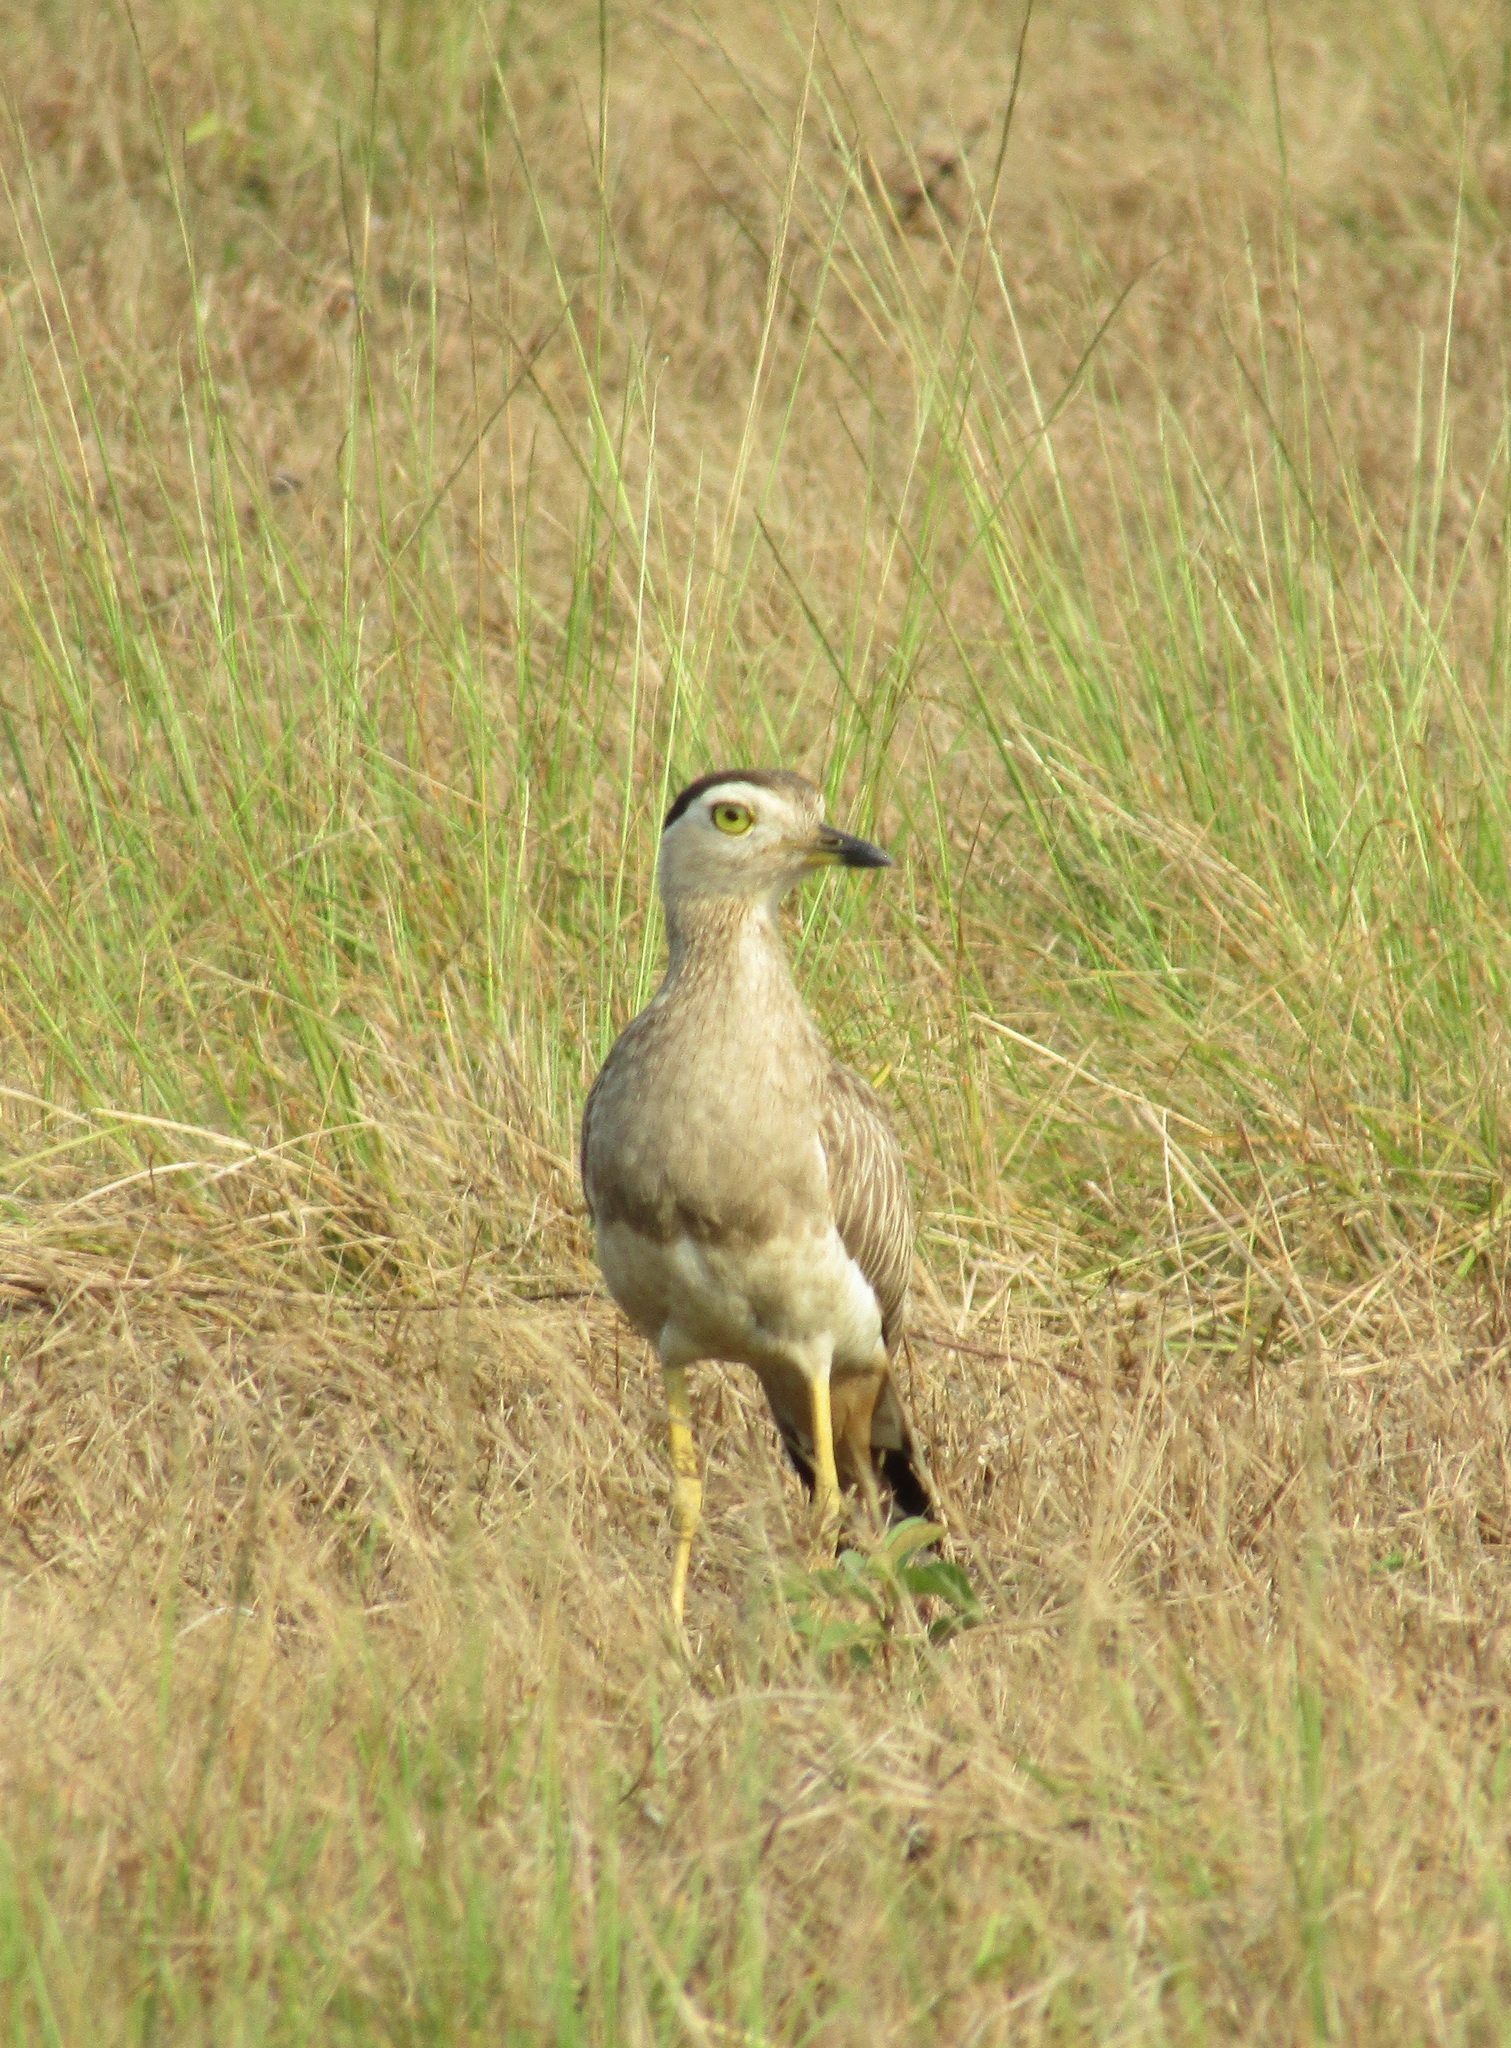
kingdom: Animalia
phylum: Chordata
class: Aves
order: Charadriiformes
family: Burhinidae
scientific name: Burhinidae
